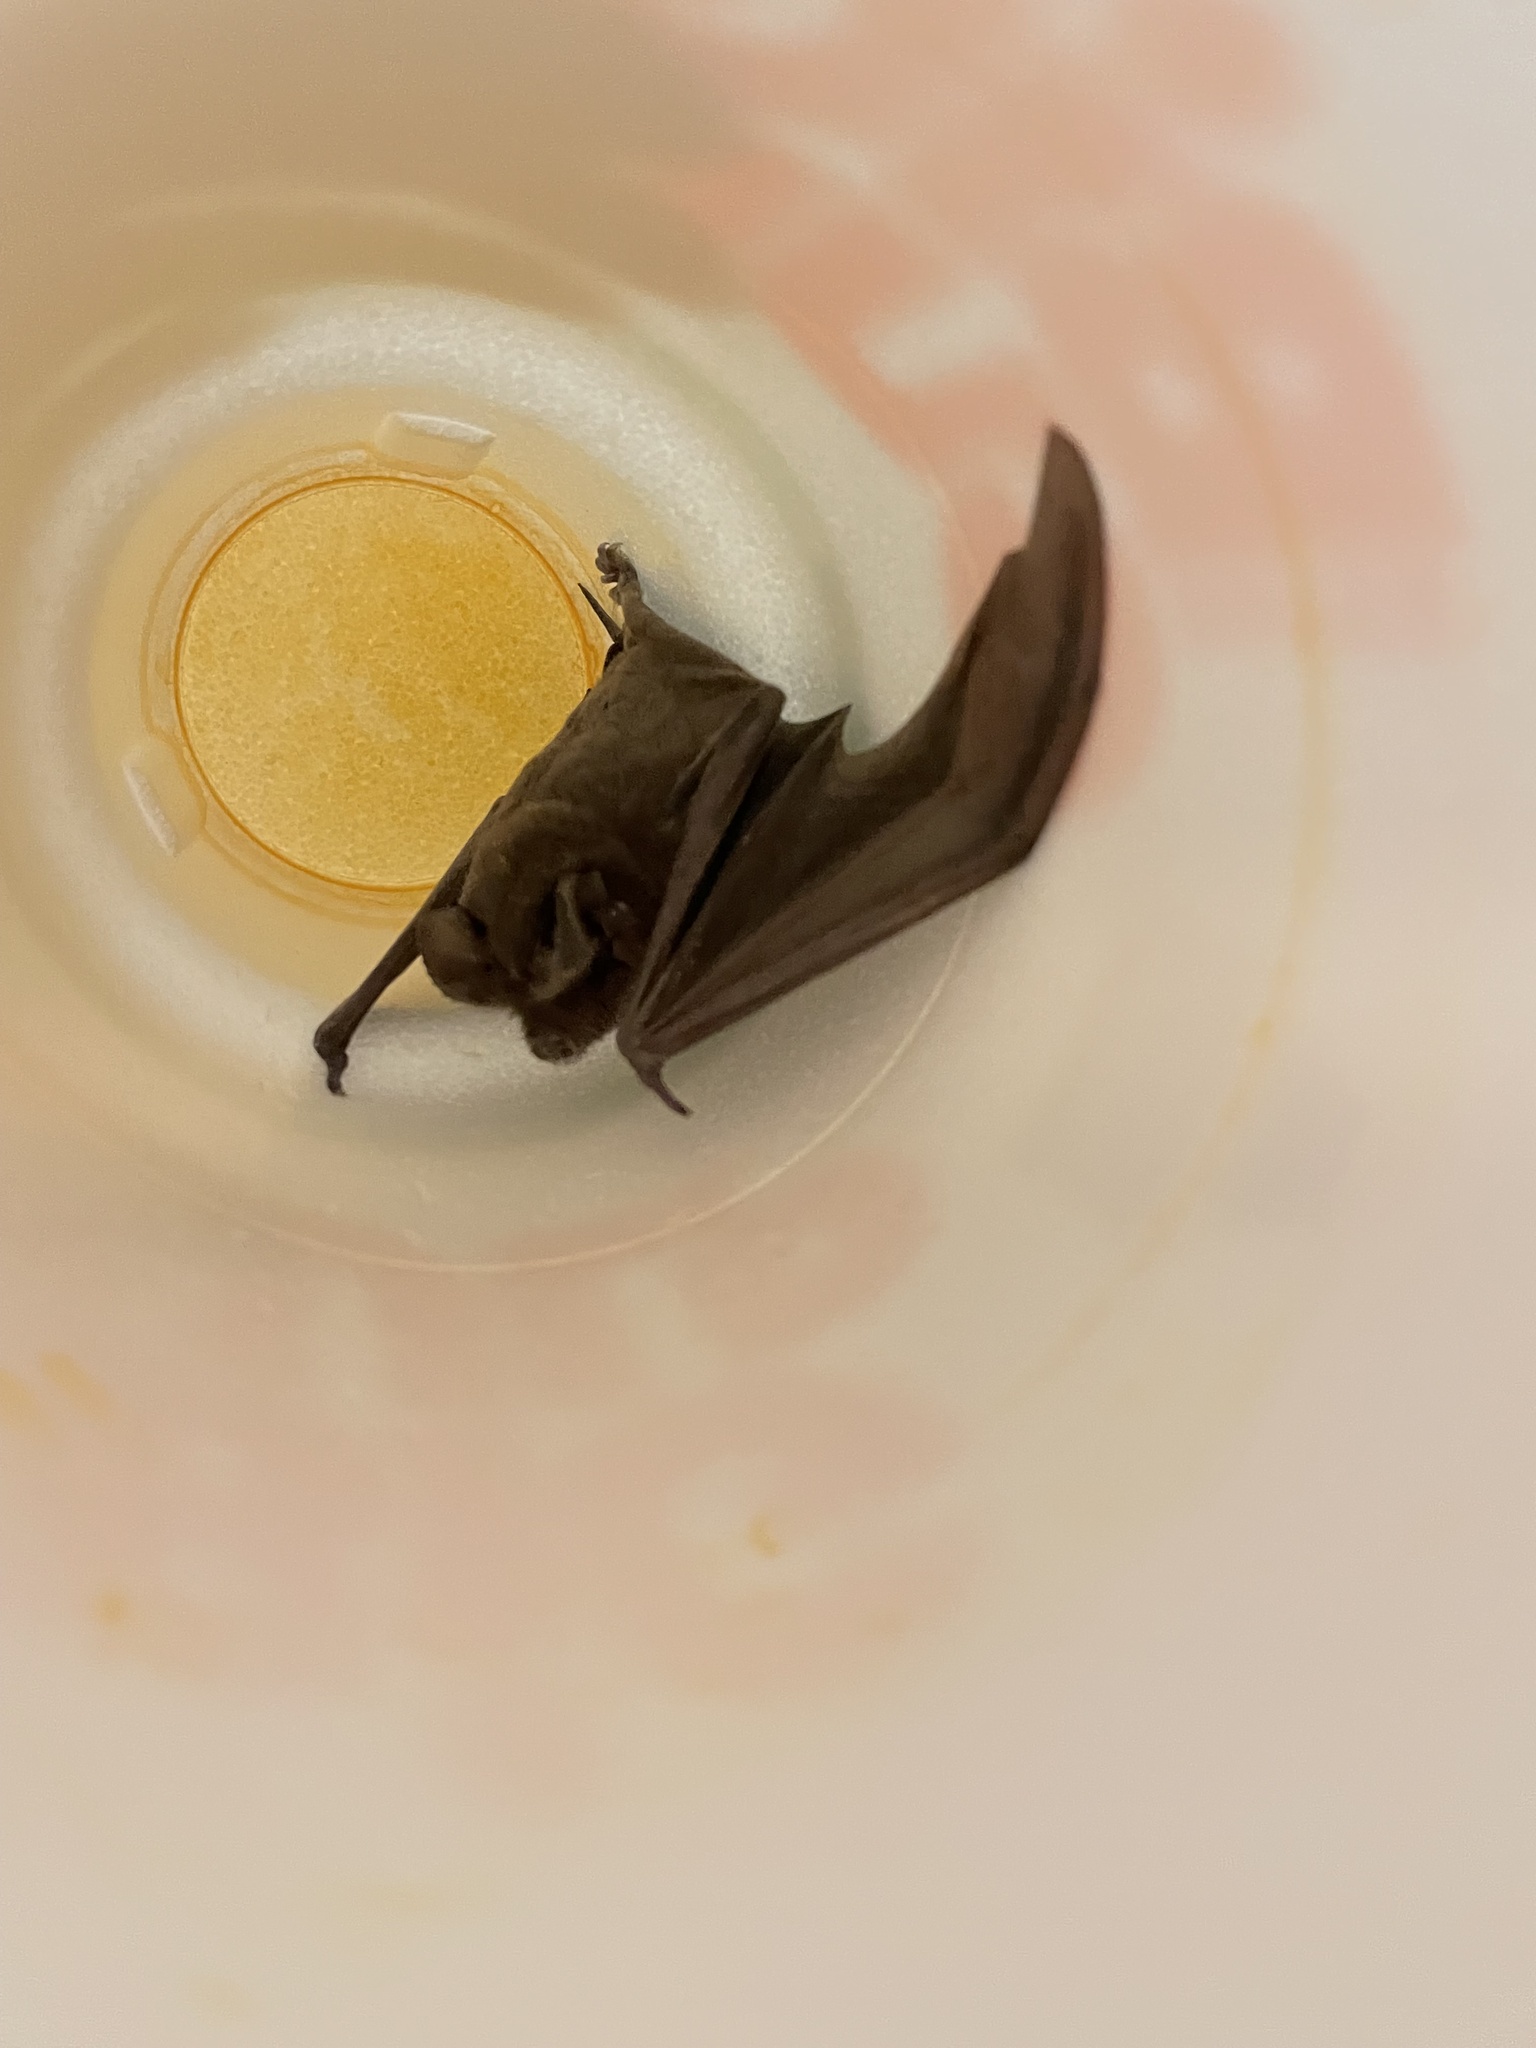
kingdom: Animalia
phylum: Chordata
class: Mammalia
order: Chiroptera
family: Molossidae
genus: Tadarida
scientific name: Tadarida brasiliensis
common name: Mexican free-tailed bat
